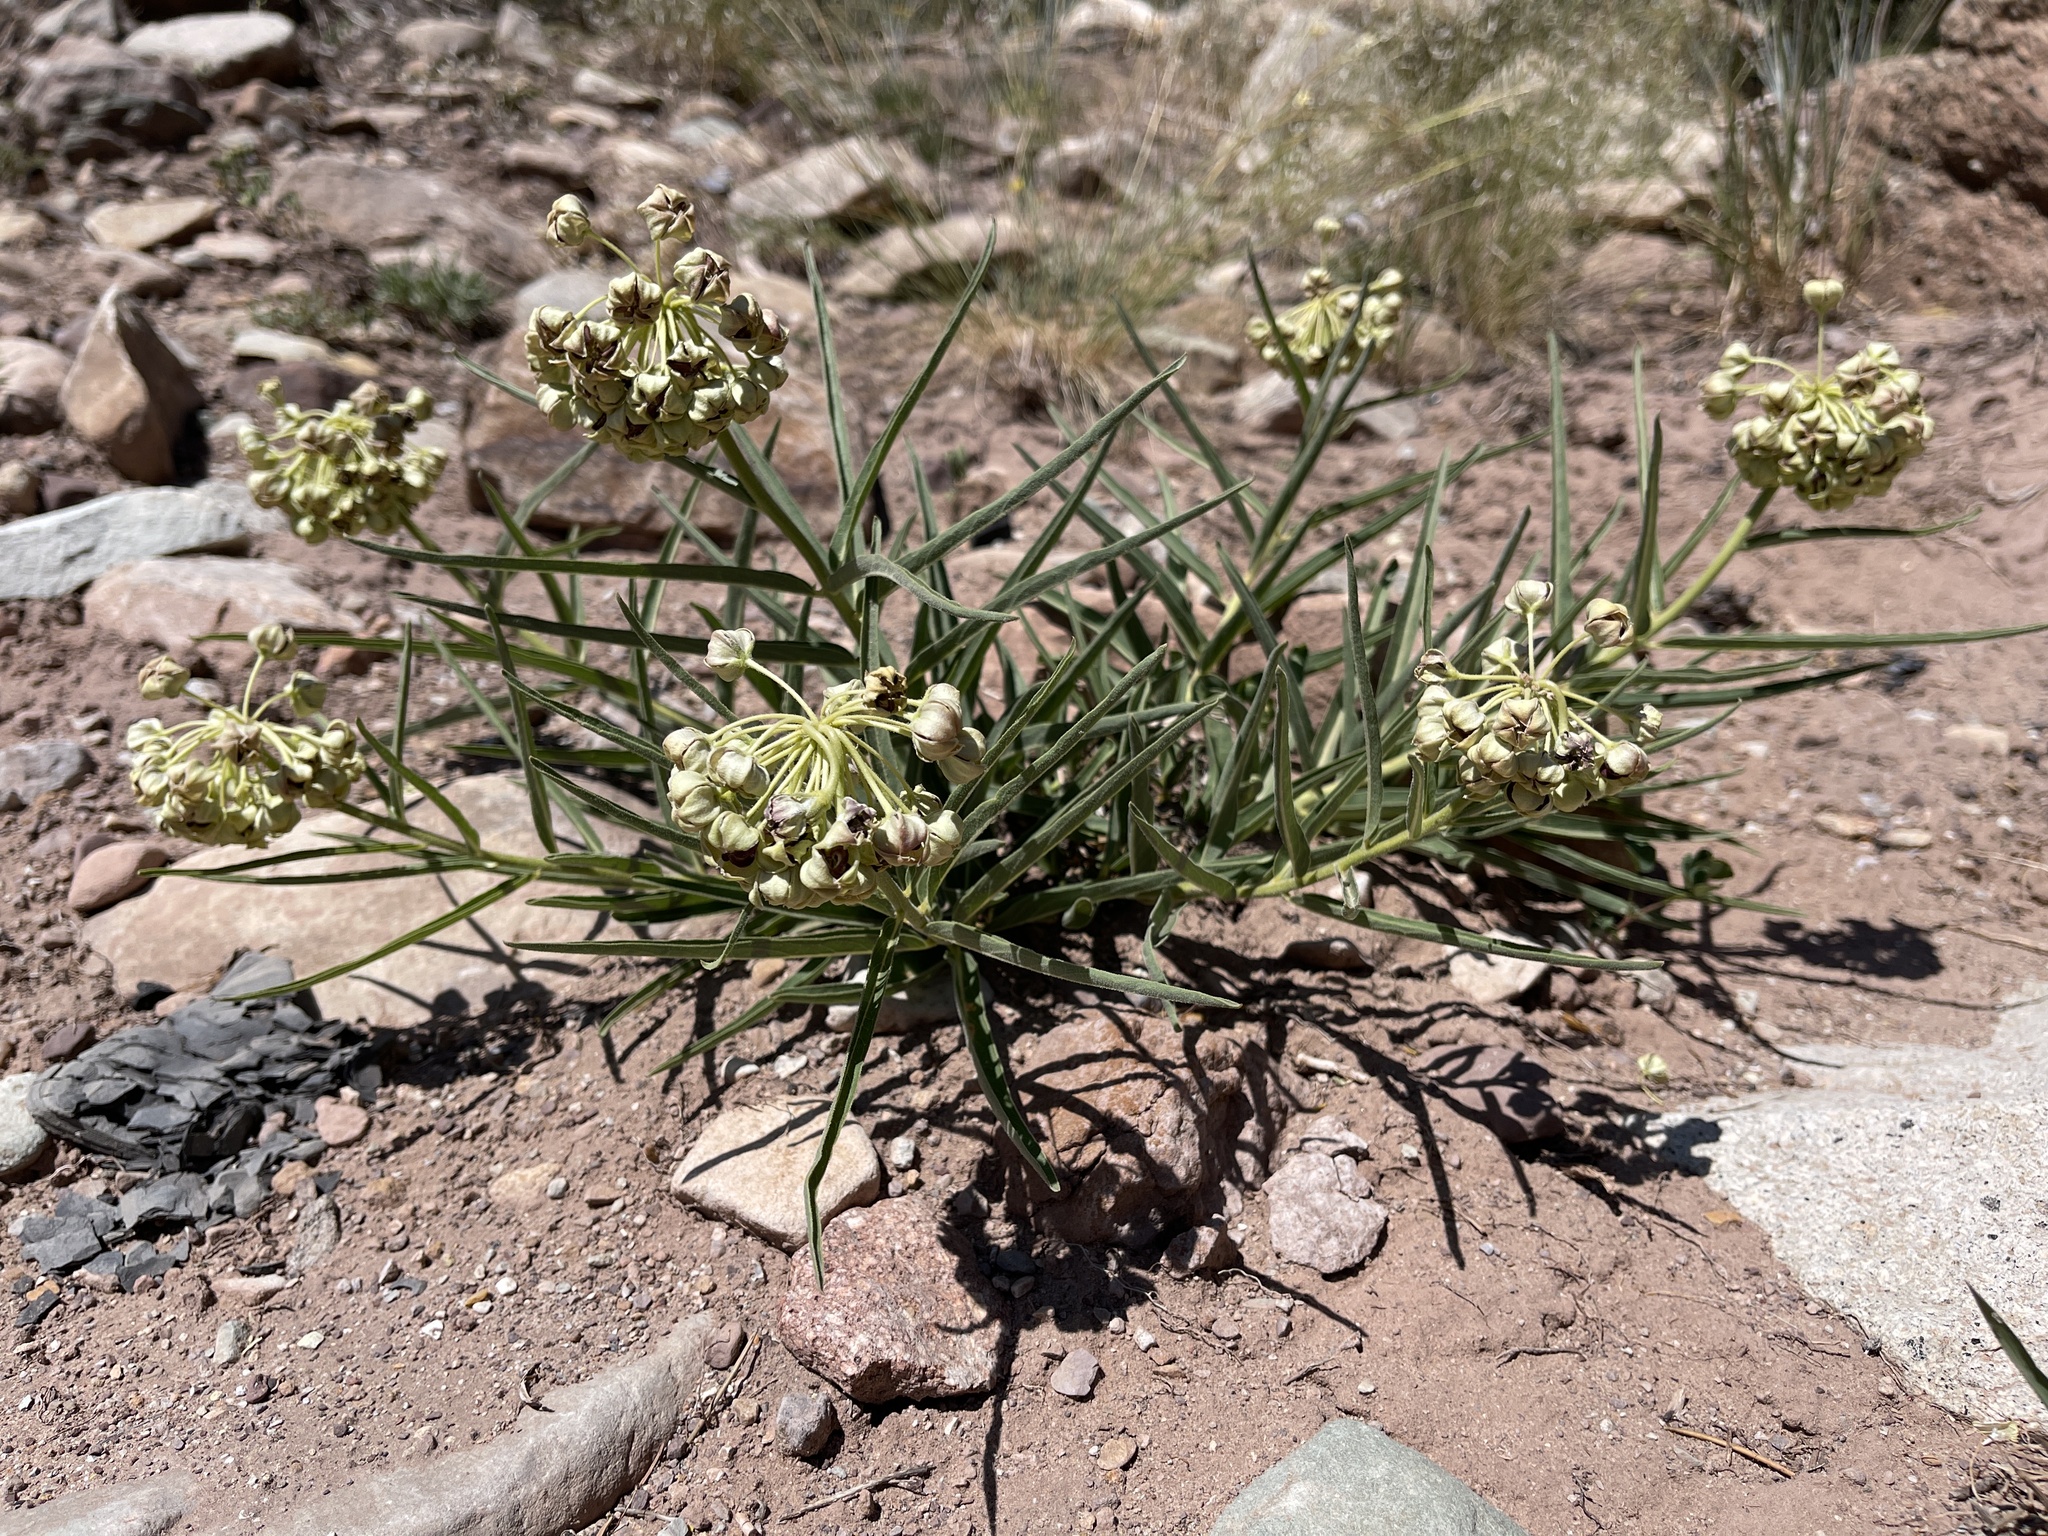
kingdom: Plantae
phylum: Tracheophyta
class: Magnoliopsida
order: Gentianales
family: Apocynaceae
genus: Asclepias
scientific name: Asclepias asperula
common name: Antelope horns
